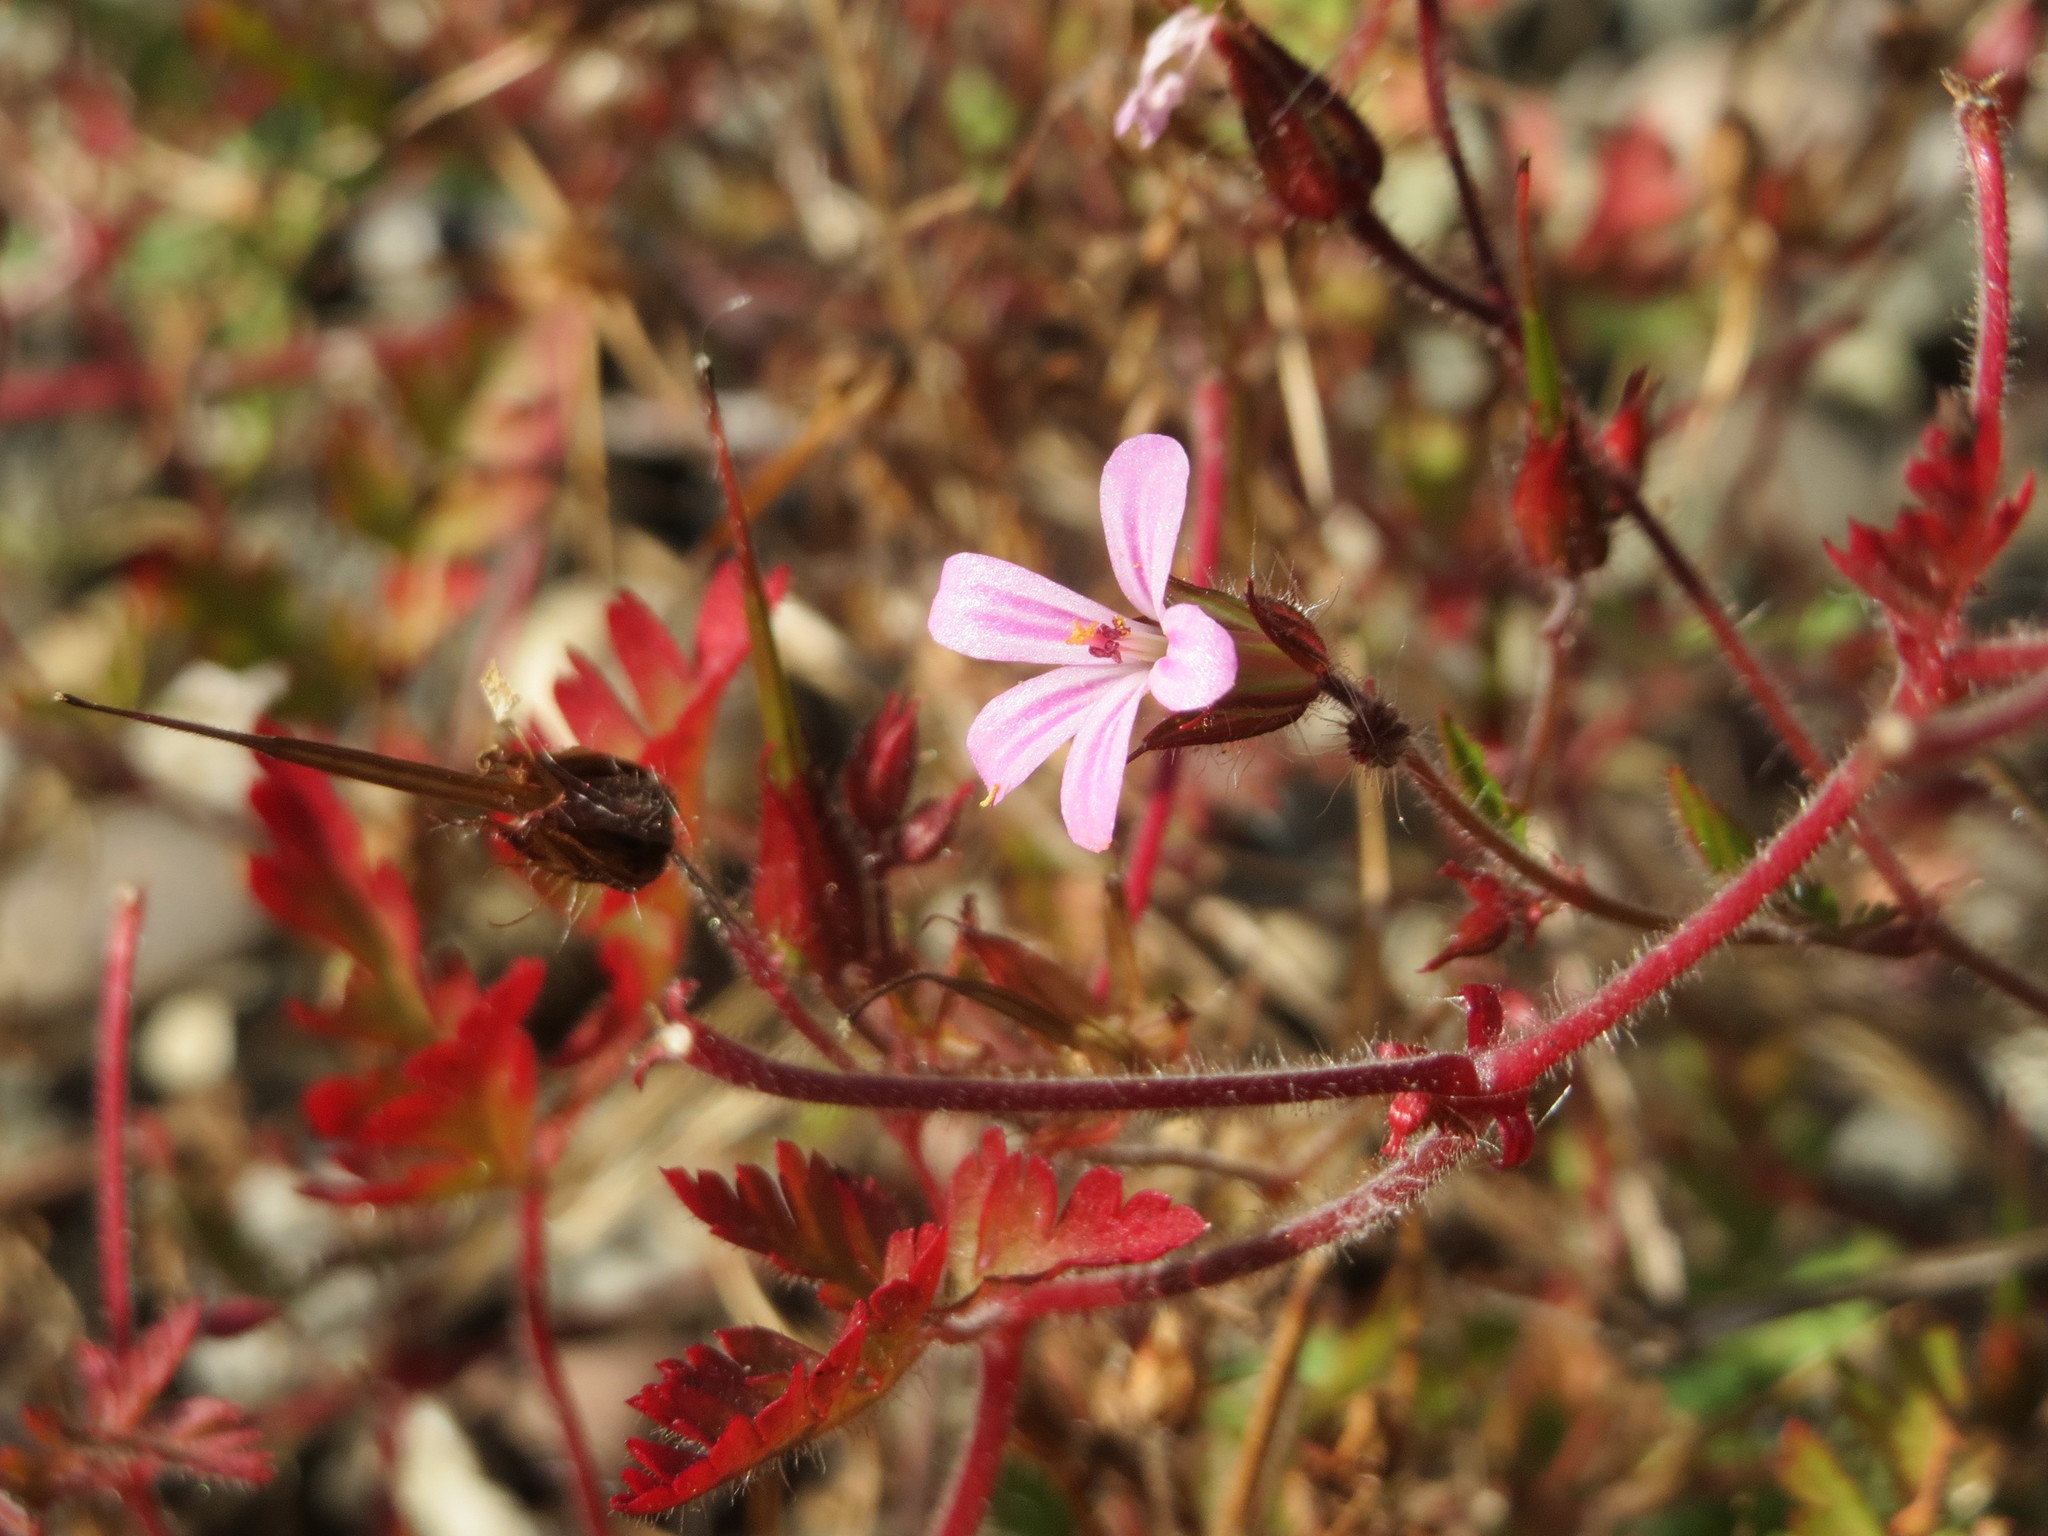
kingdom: Plantae
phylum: Tracheophyta
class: Magnoliopsida
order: Geraniales
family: Geraniaceae
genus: Geranium
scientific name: Geranium robertianum
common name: Herb-robert
